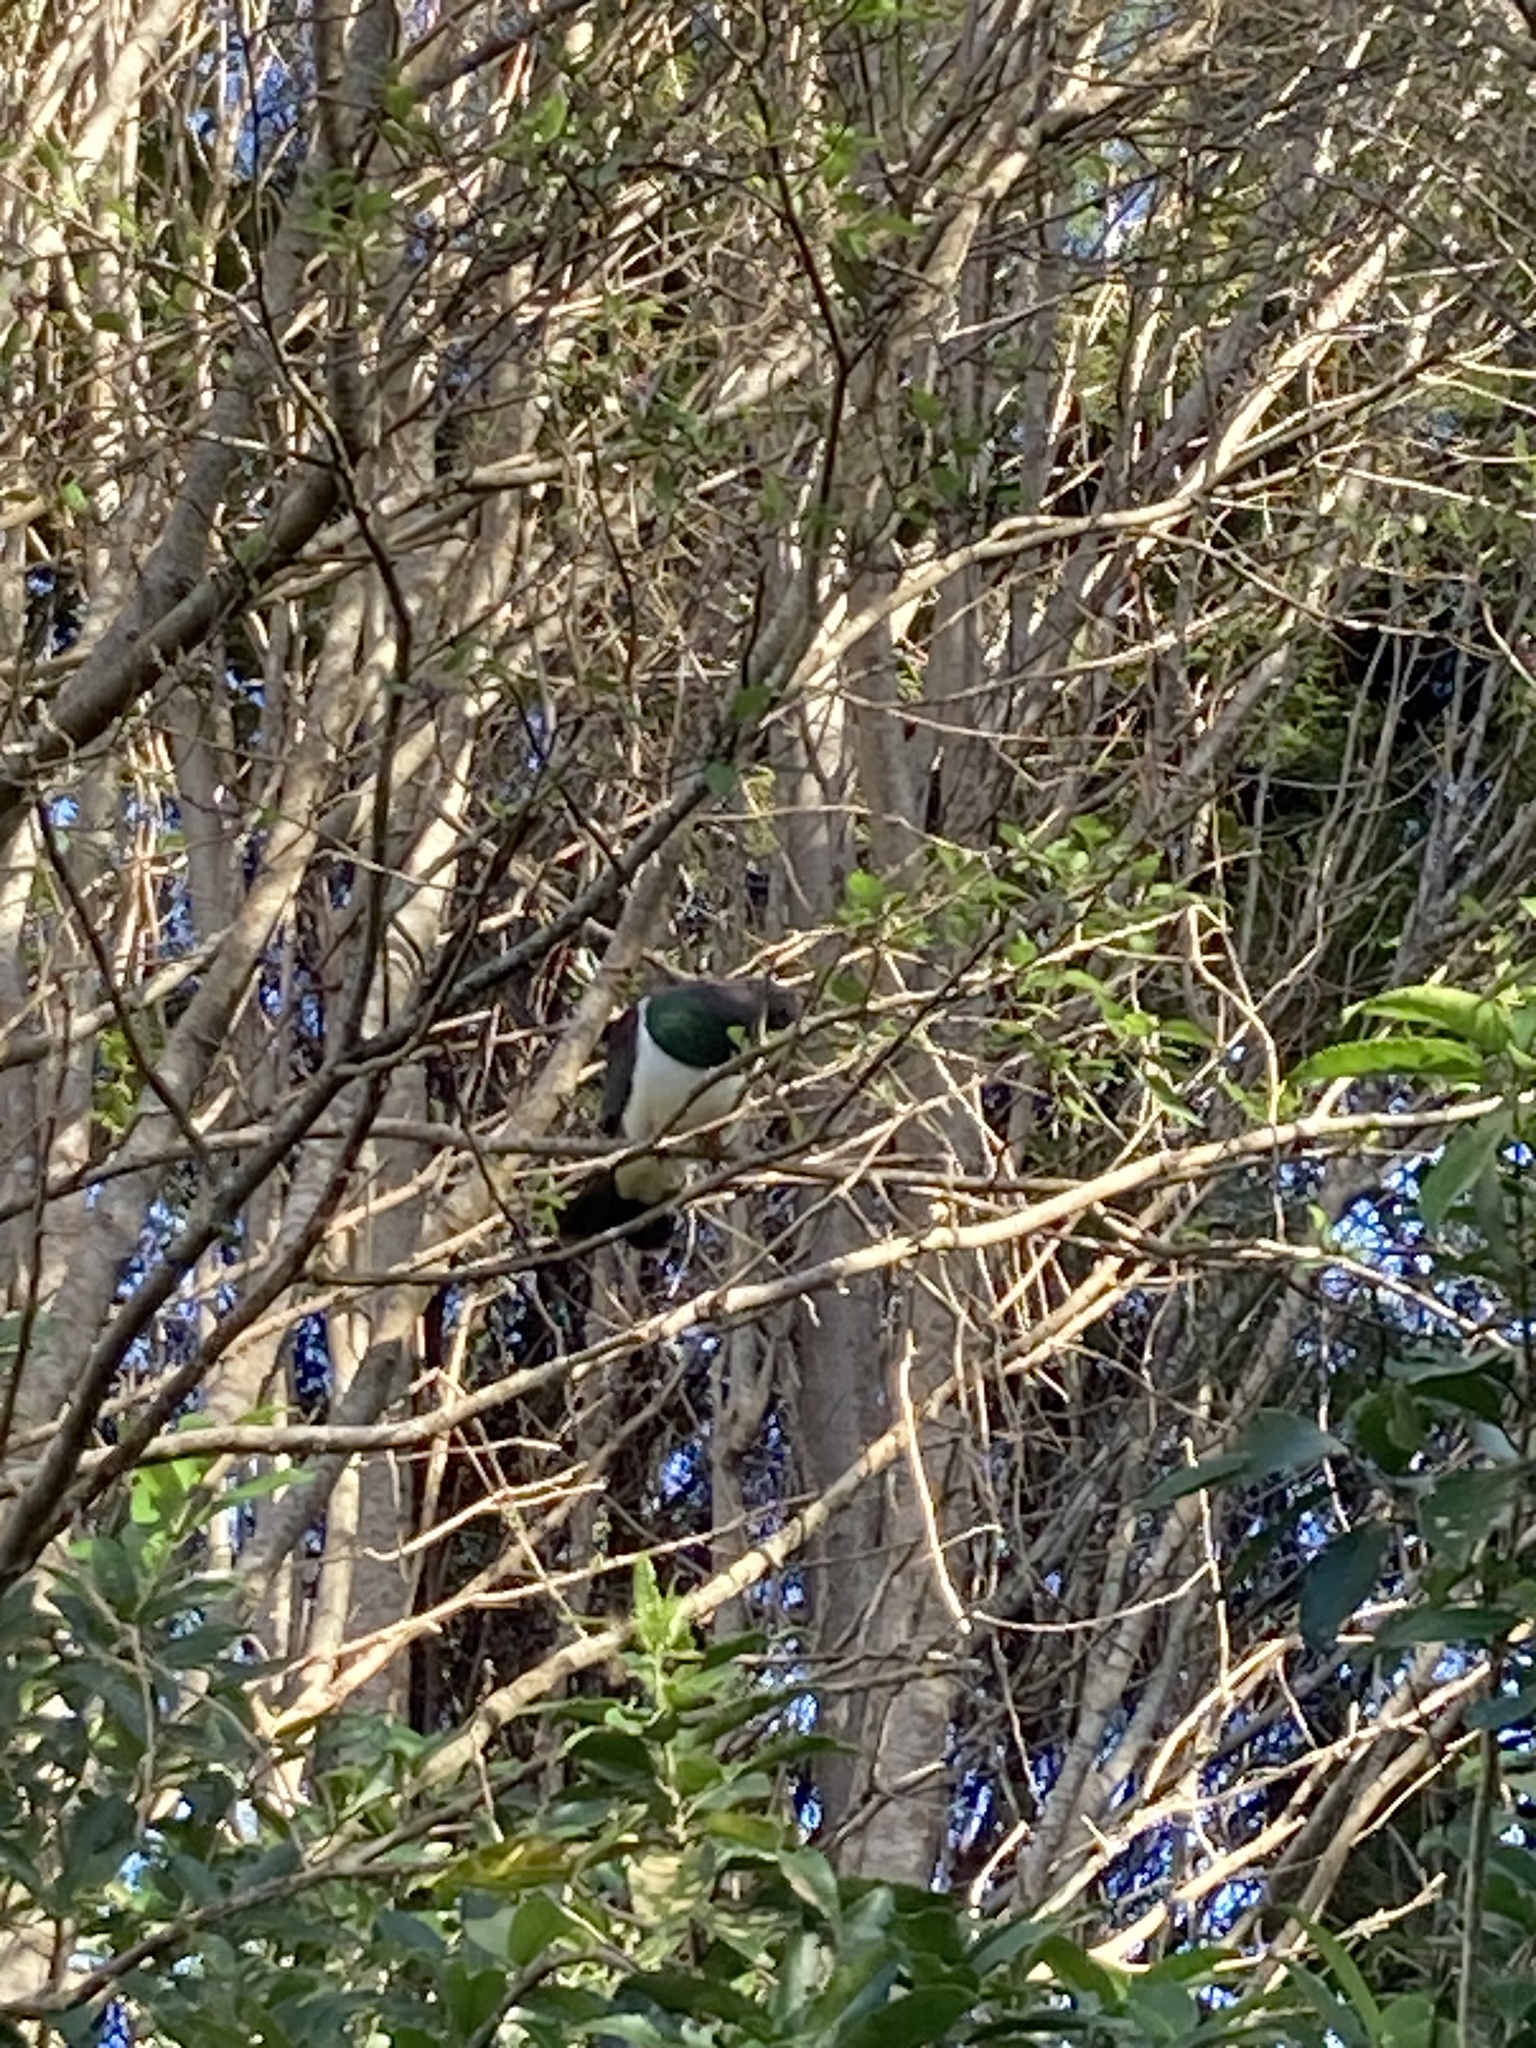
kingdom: Animalia
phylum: Chordata
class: Aves
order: Columbiformes
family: Columbidae
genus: Hemiphaga
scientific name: Hemiphaga novaeseelandiae
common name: New zealand pigeon
